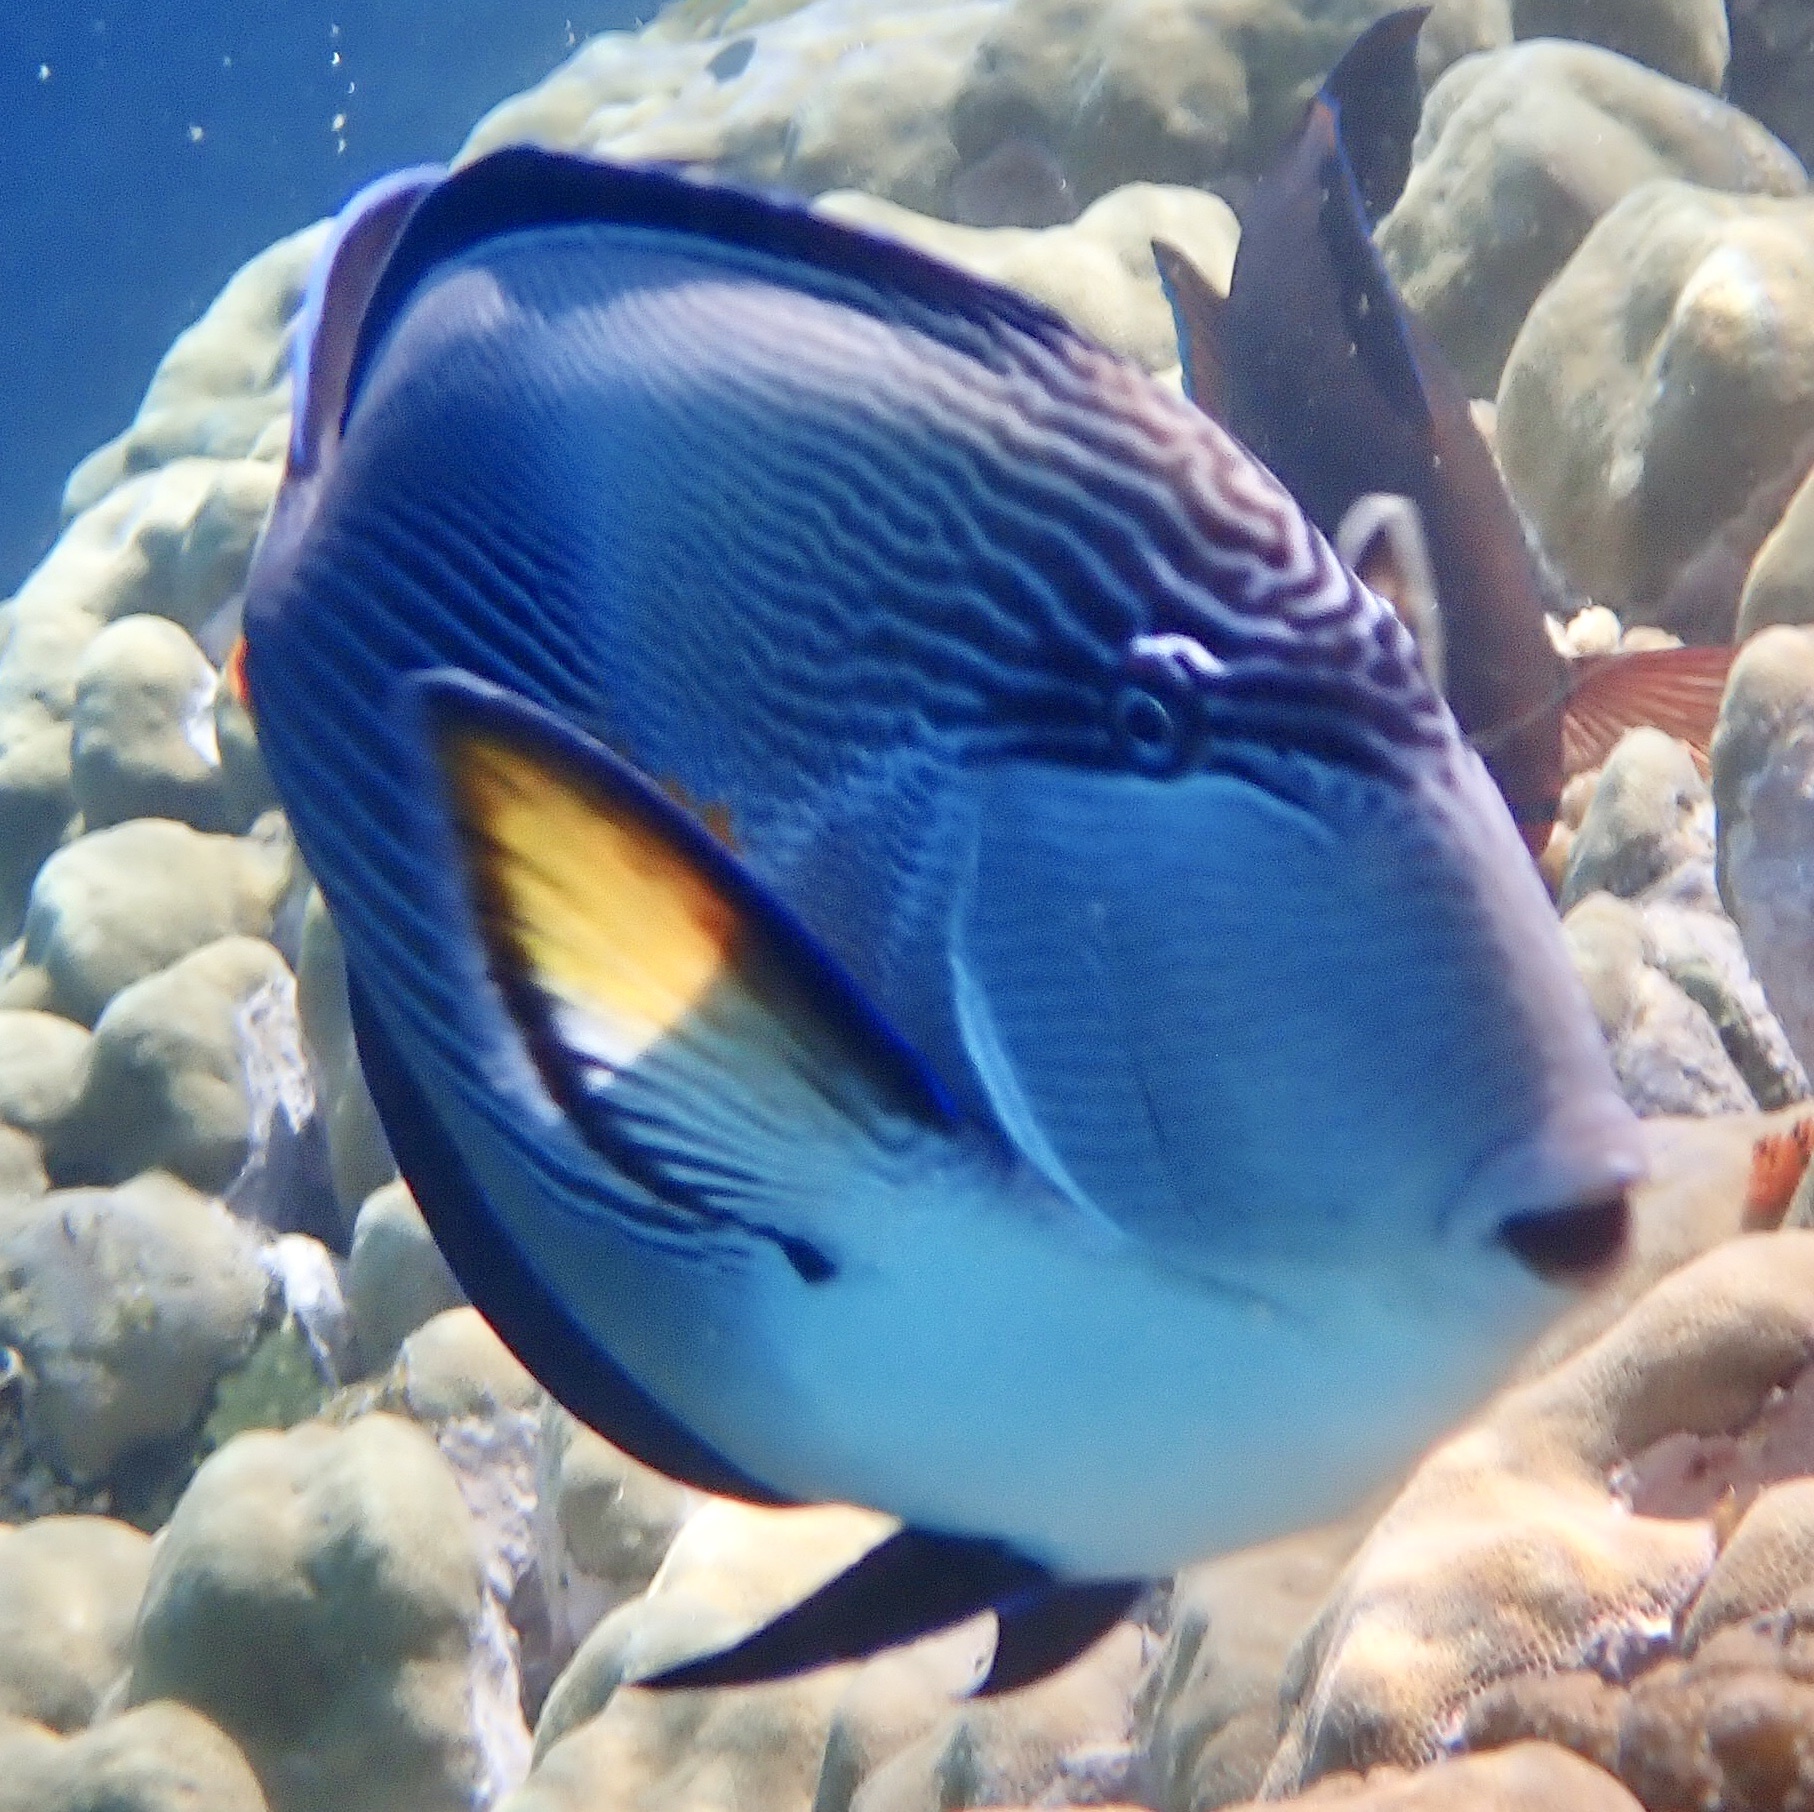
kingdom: Animalia
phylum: Chordata
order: Perciformes
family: Acanthuridae
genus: Acanthurus
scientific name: Acanthurus sohal
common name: Red sea surgeonfish
